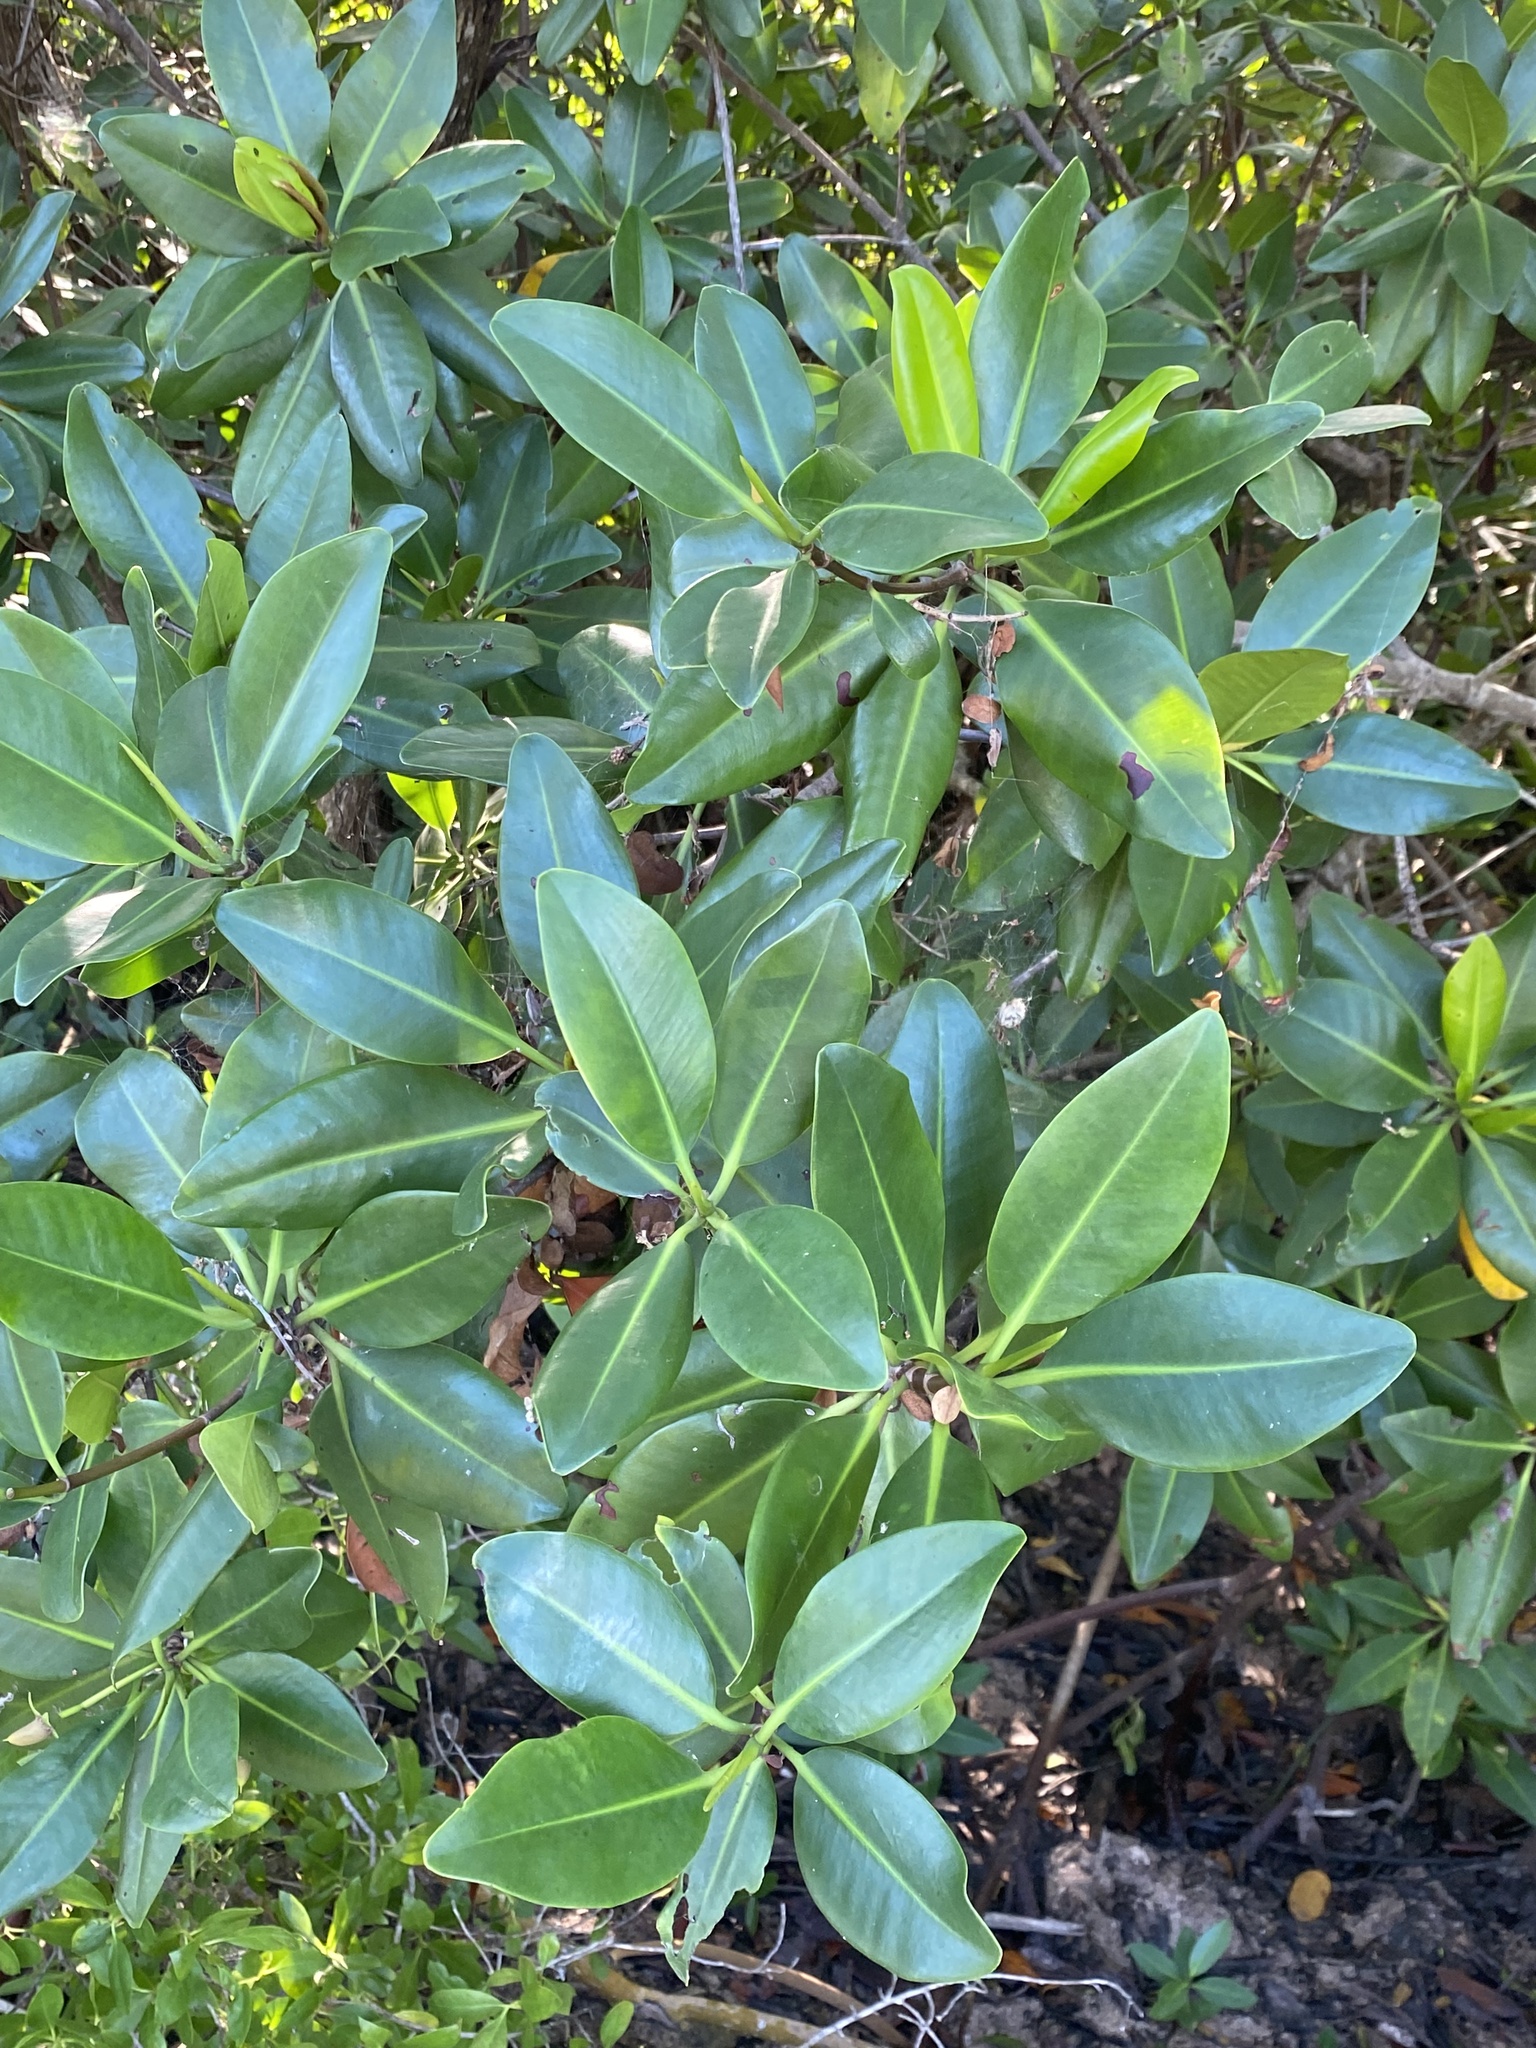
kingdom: Plantae
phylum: Tracheophyta
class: Magnoliopsida
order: Malpighiales
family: Rhizophoraceae
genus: Rhizophora
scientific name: Rhizophora mangle
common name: Red mangrove
